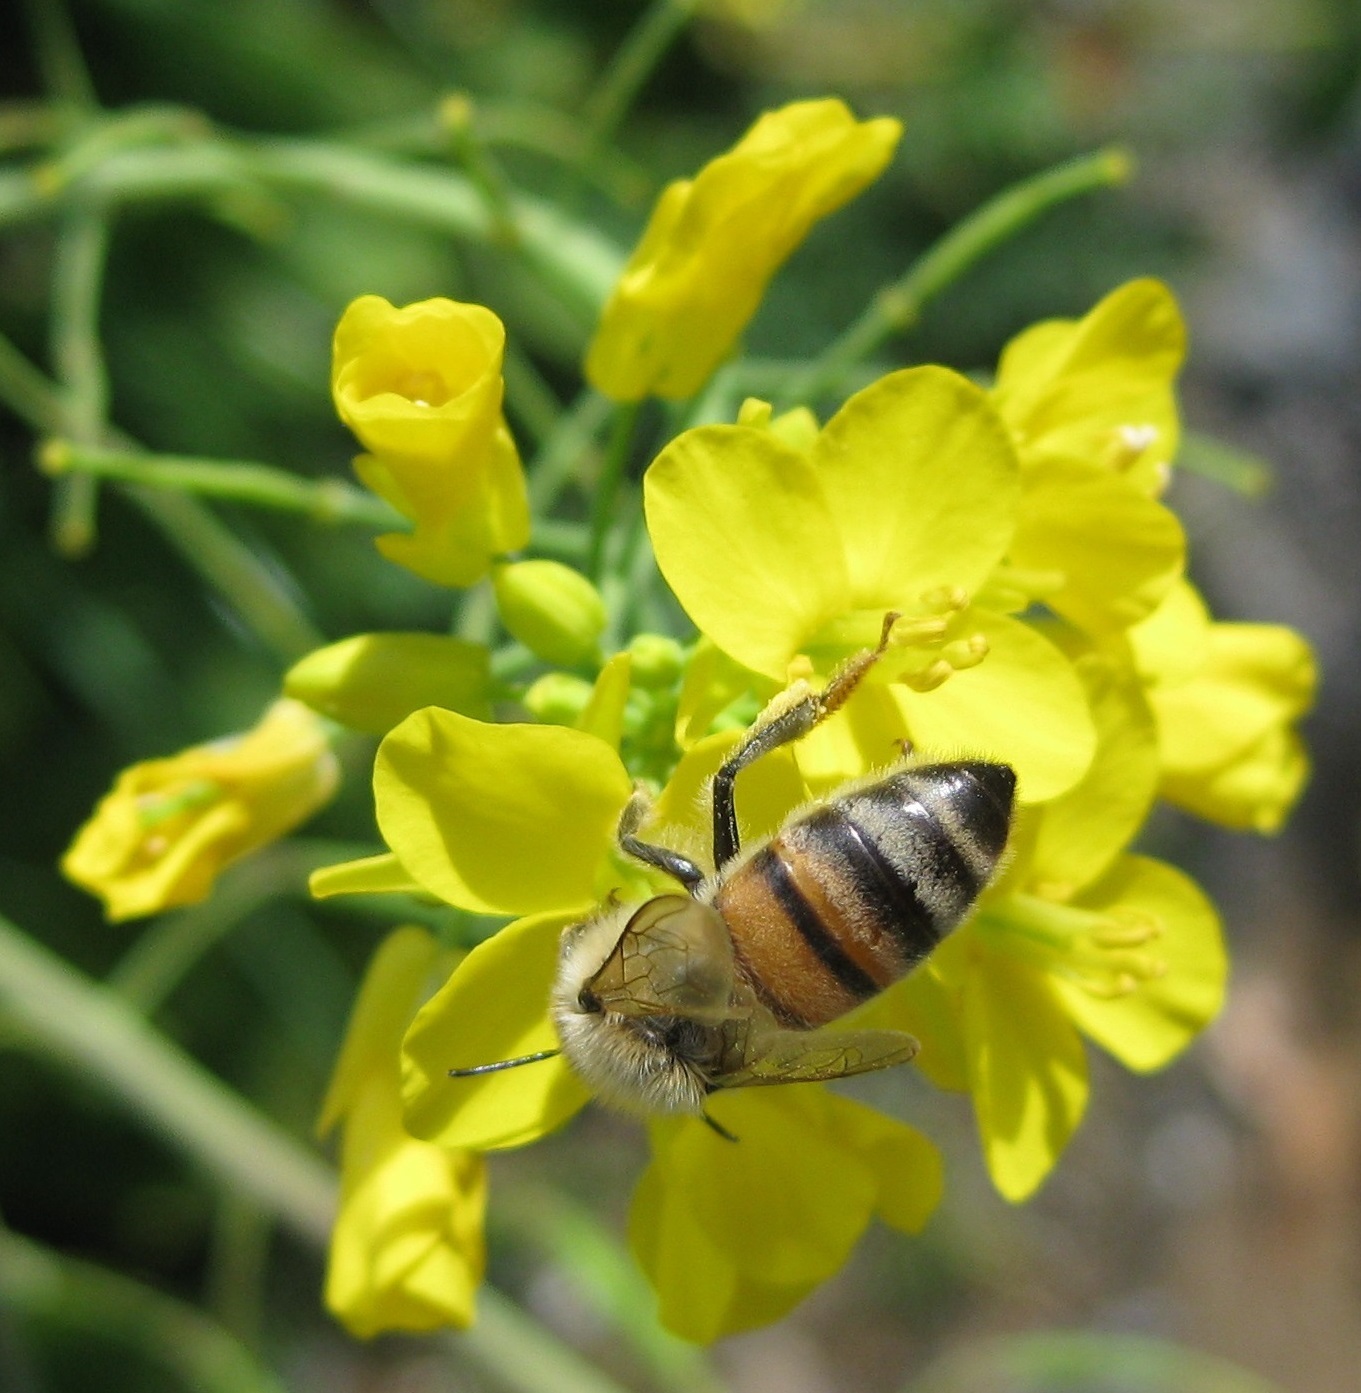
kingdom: Animalia
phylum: Arthropoda
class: Insecta
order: Hymenoptera
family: Apidae
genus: Apis
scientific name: Apis mellifera
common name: Honey bee
